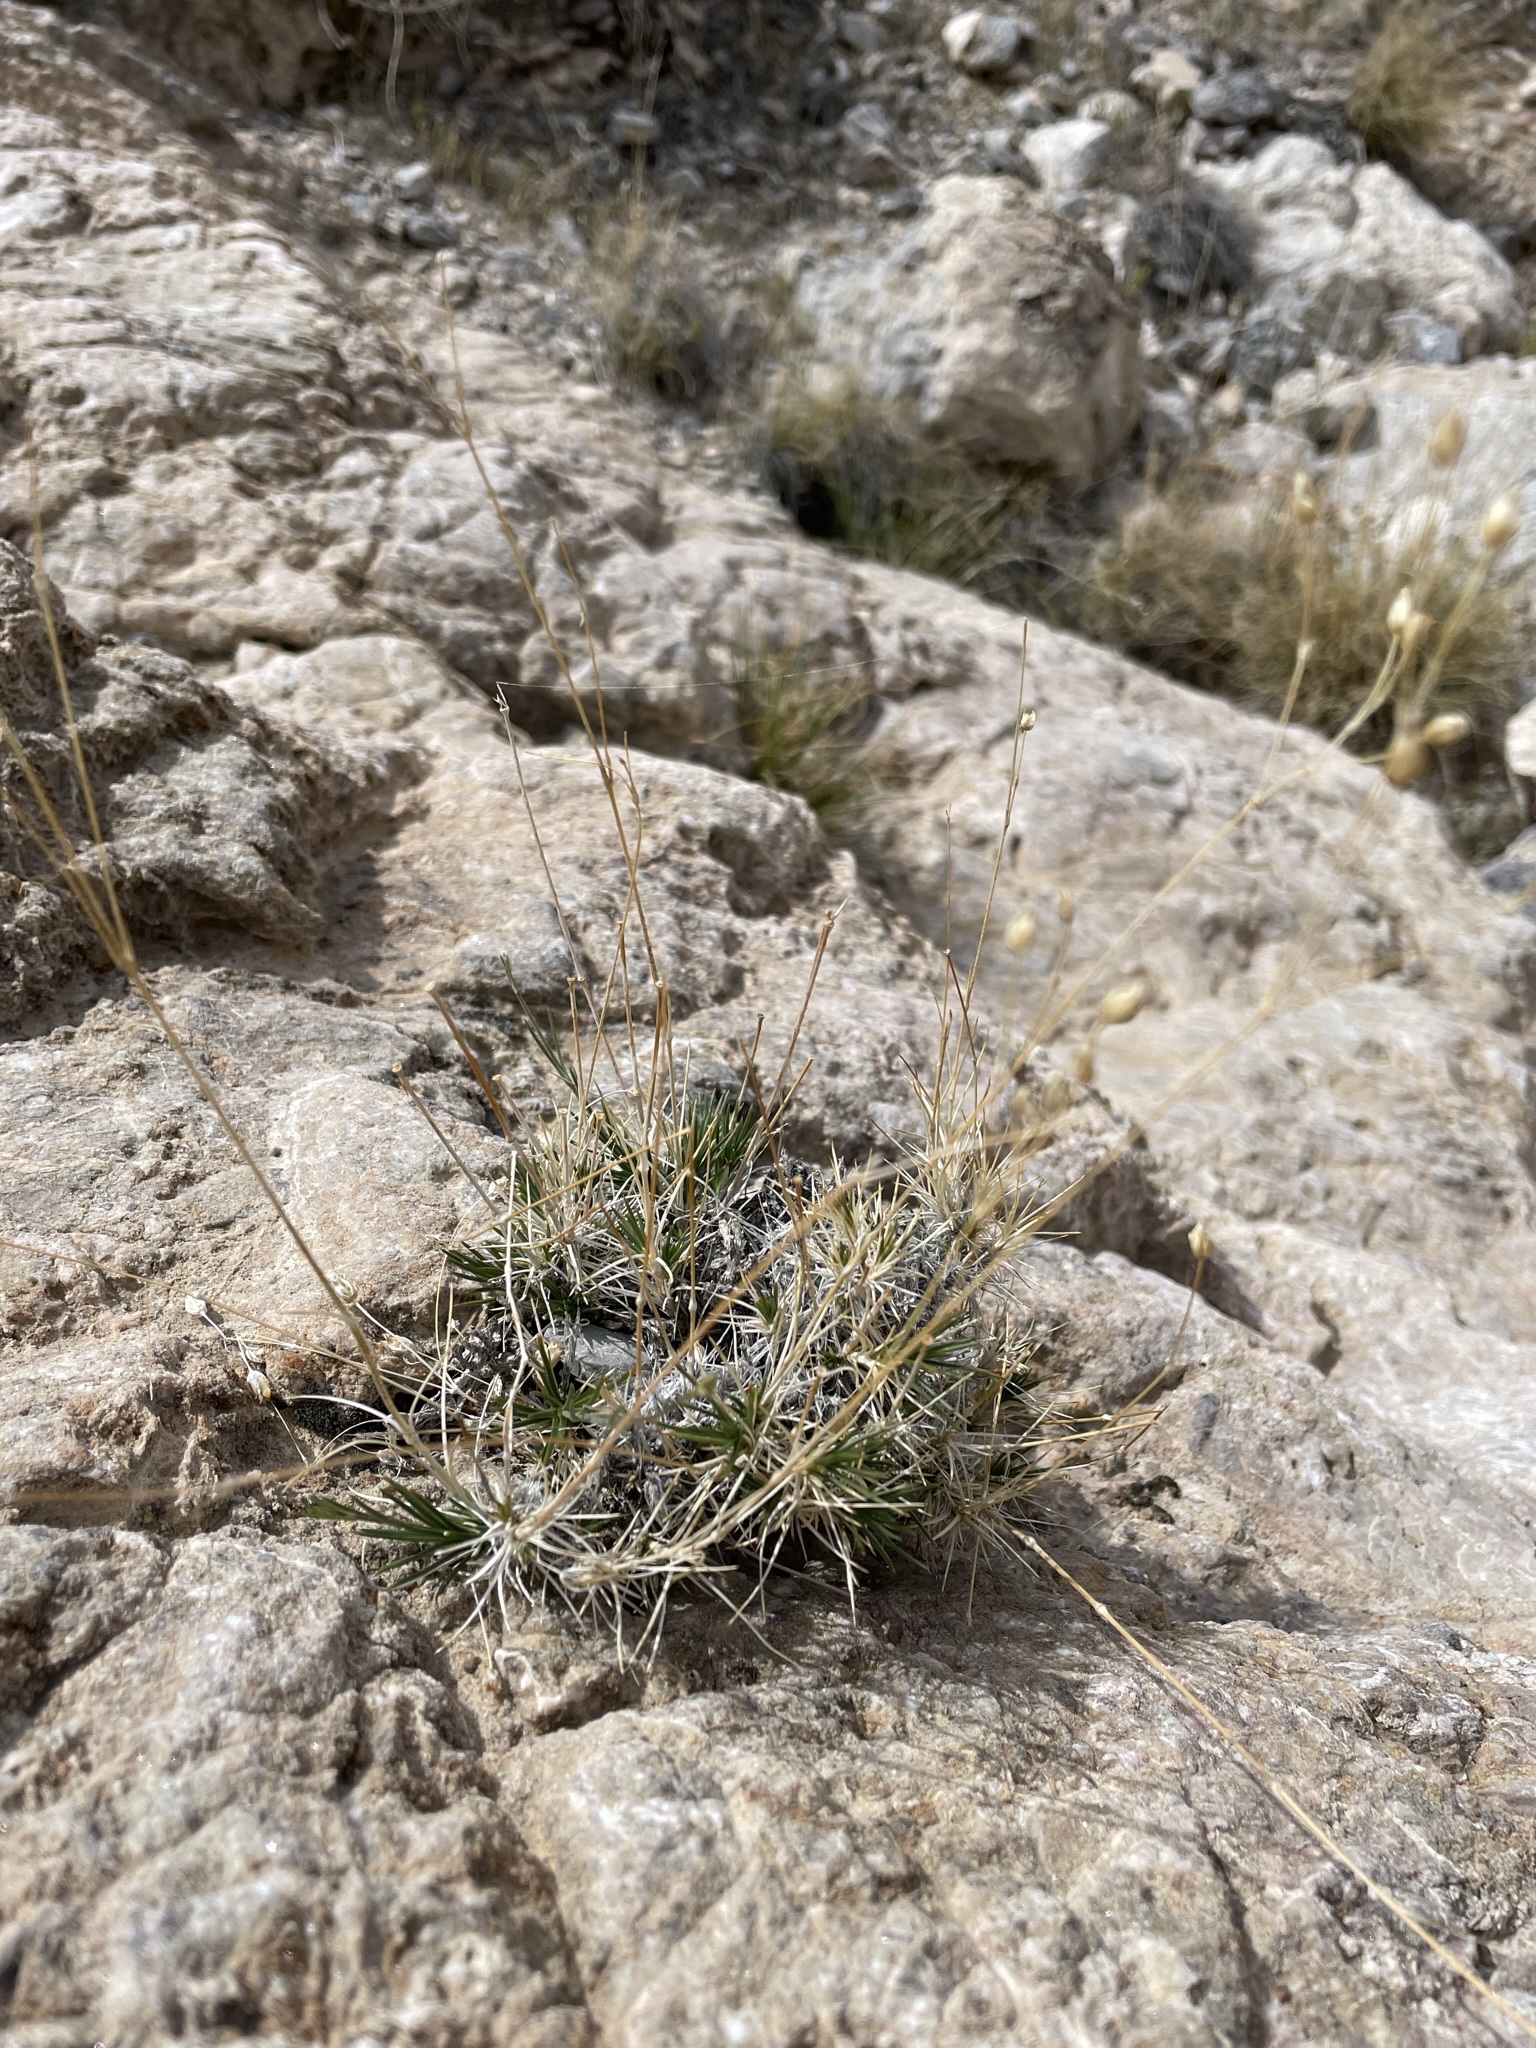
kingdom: Plantae
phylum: Tracheophyta
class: Magnoliopsida
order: Caryophyllales
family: Caryophyllaceae
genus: Eremogone
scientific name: Eremogone macradenia
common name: Mohave sandwort
